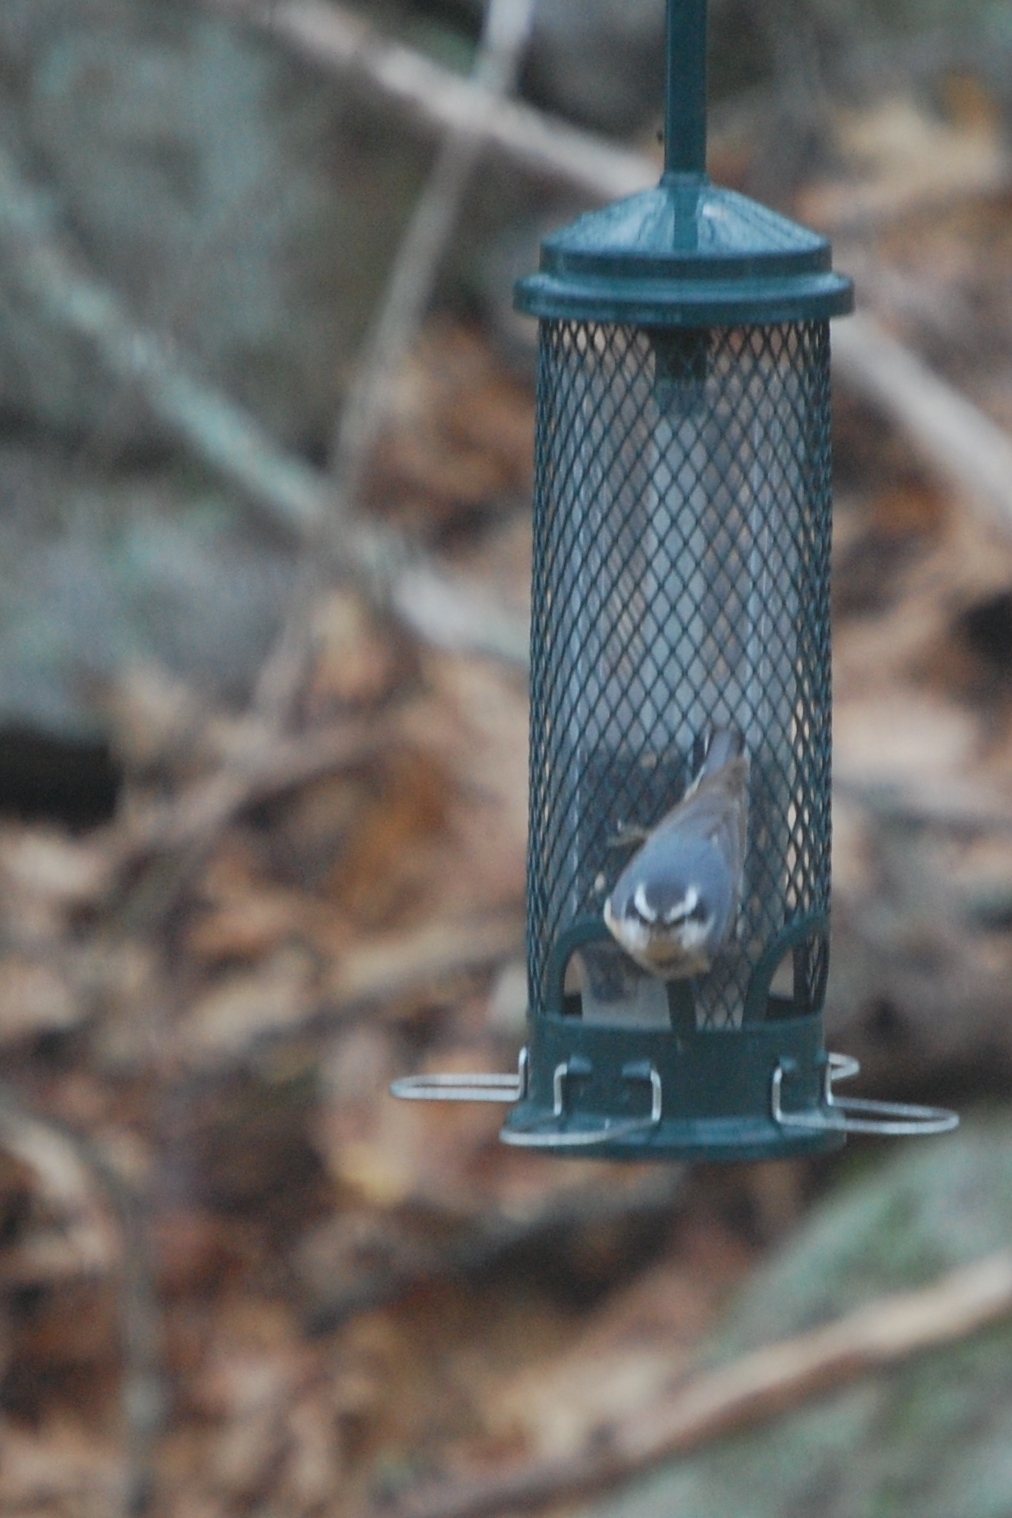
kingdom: Animalia
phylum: Chordata
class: Aves
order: Passeriformes
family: Sittidae
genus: Sitta
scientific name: Sitta canadensis
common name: Red-breasted nuthatch
